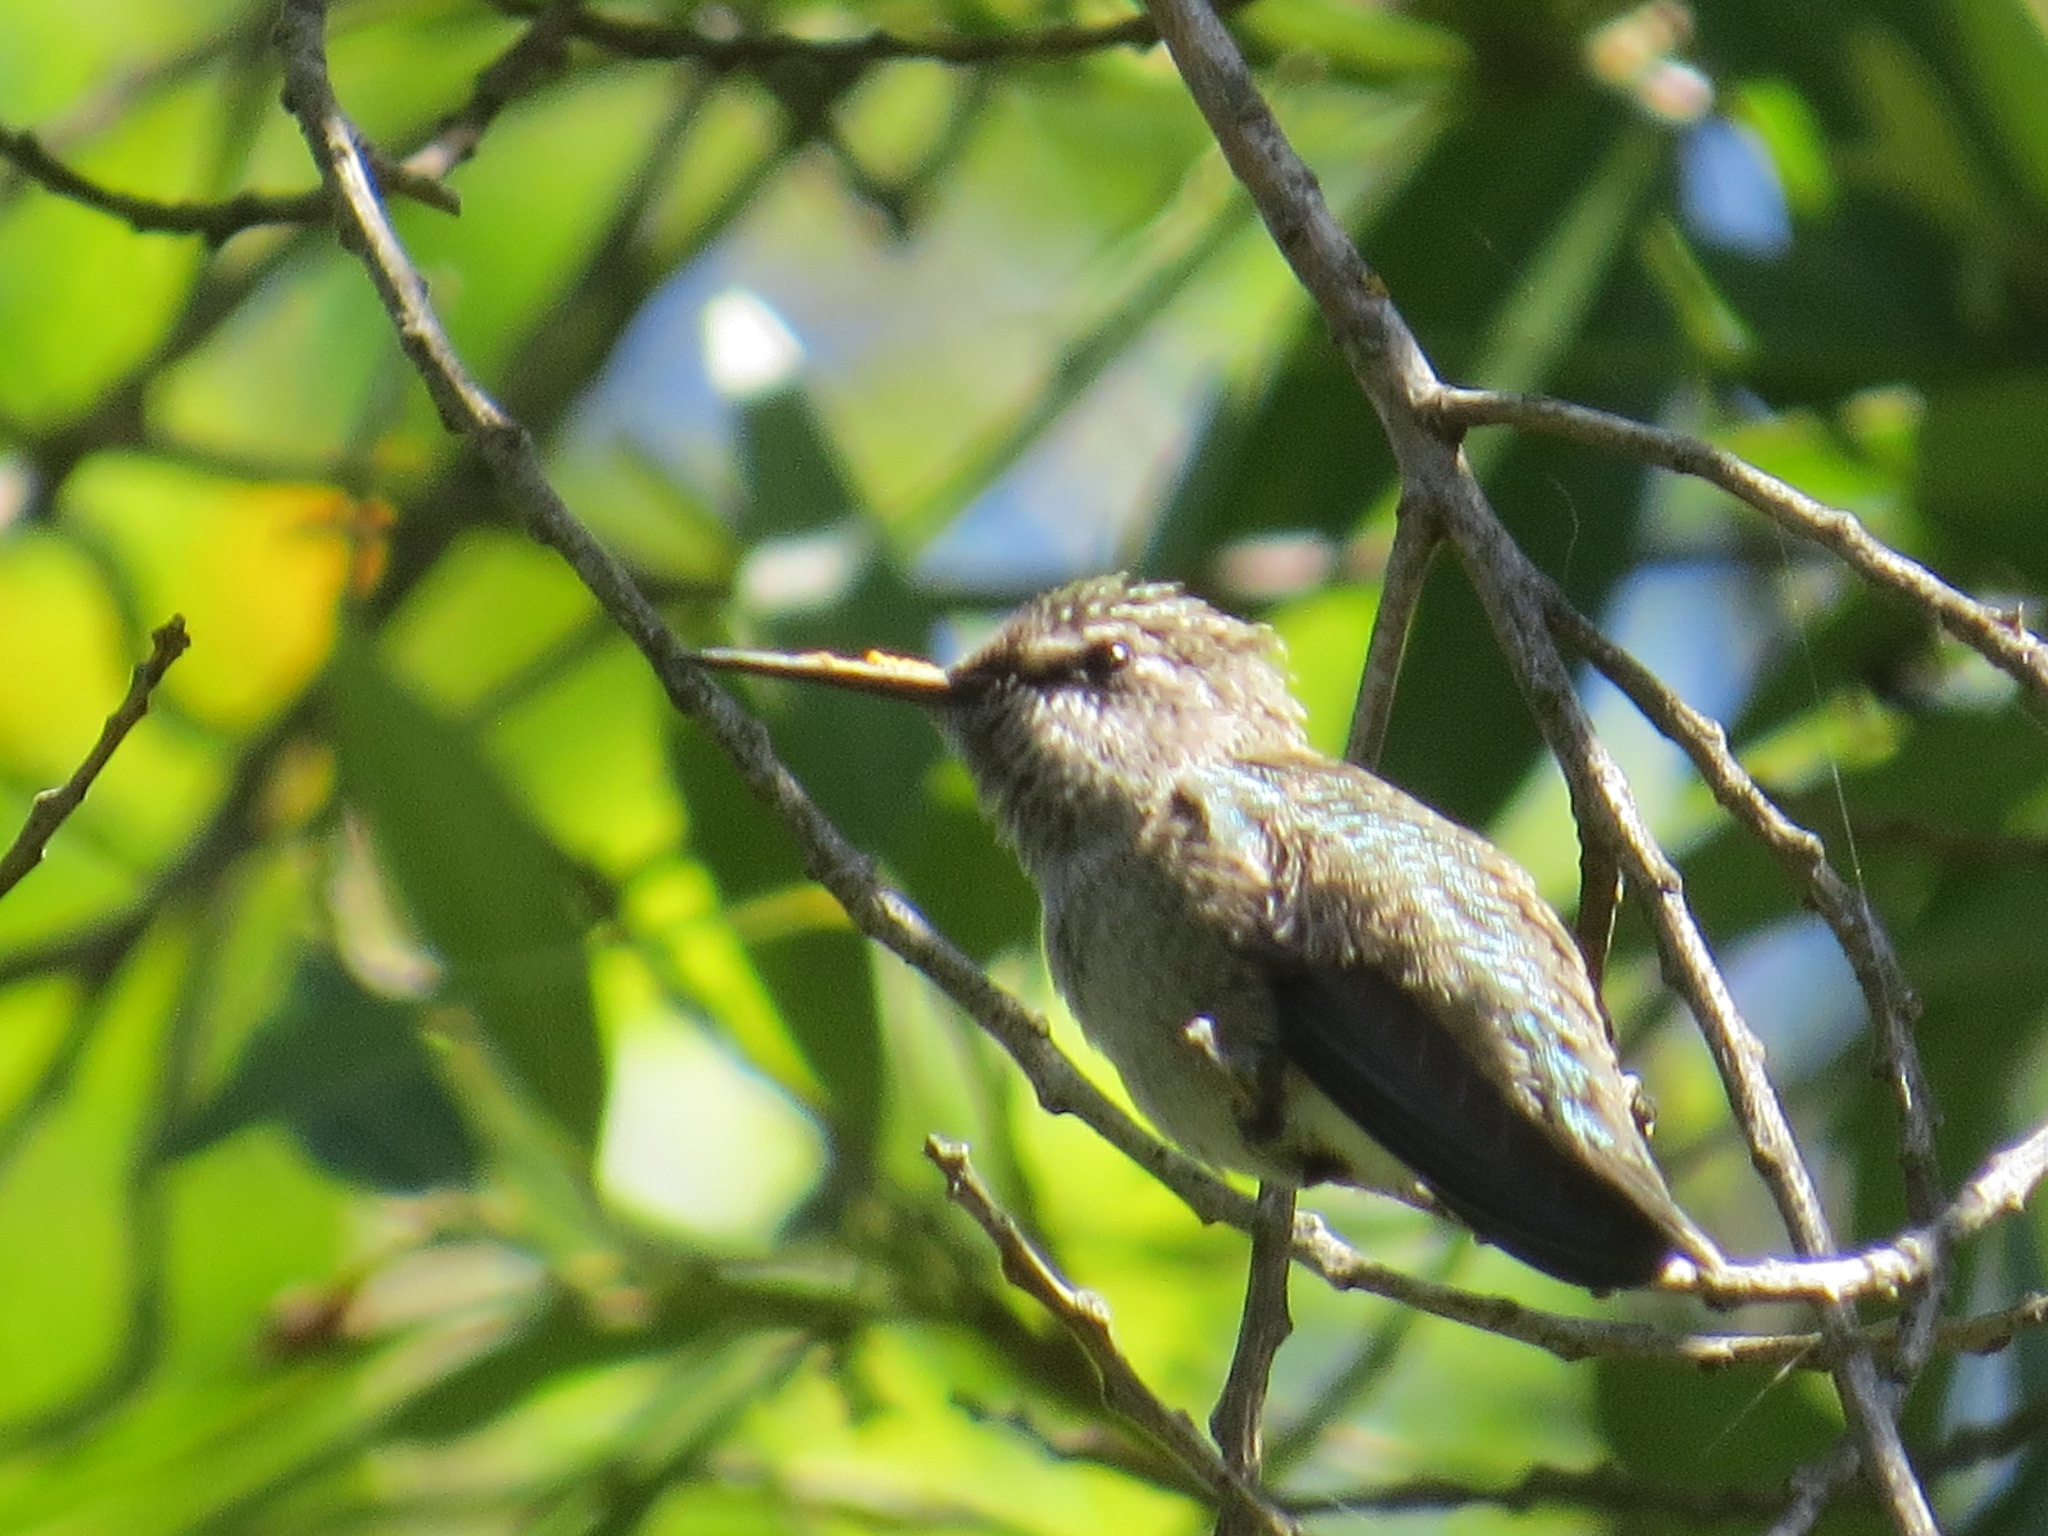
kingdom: Animalia
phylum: Chordata
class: Aves
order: Apodiformes
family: Trochilidae
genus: Calypte
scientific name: Calypte anna
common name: Anna's hummingbird
